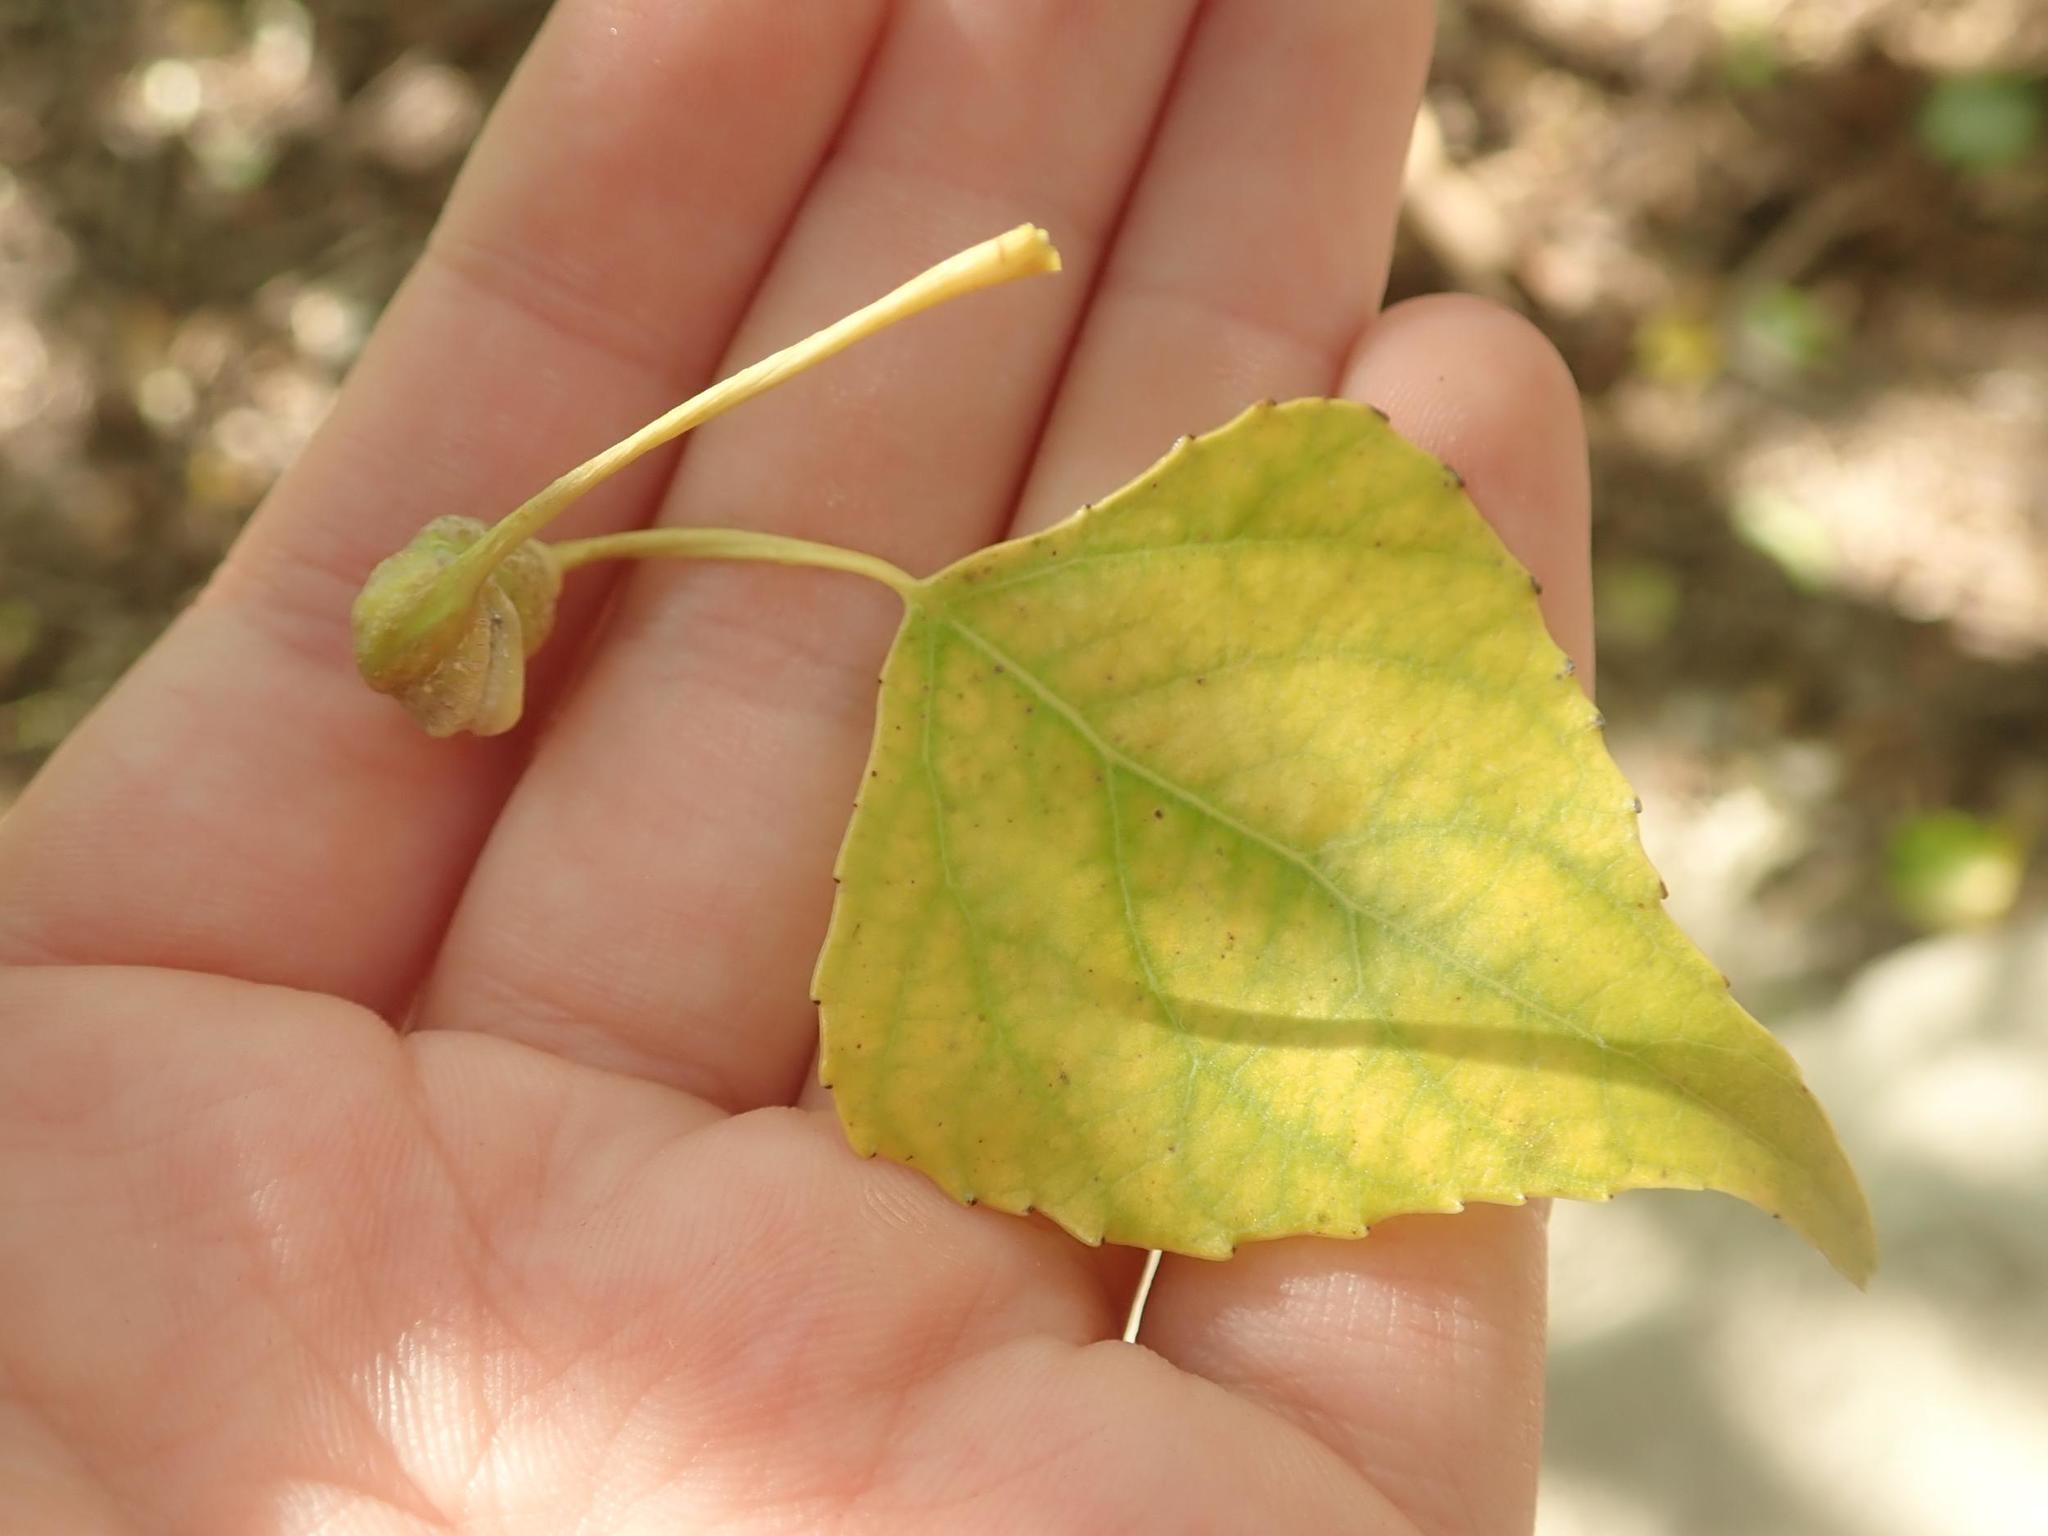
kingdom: Animalia
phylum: Arthropoda
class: Insecta
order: Hemiptera
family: Aphididae
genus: Pemphigus
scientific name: Pemphigus spyrothecae
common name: Aphid
